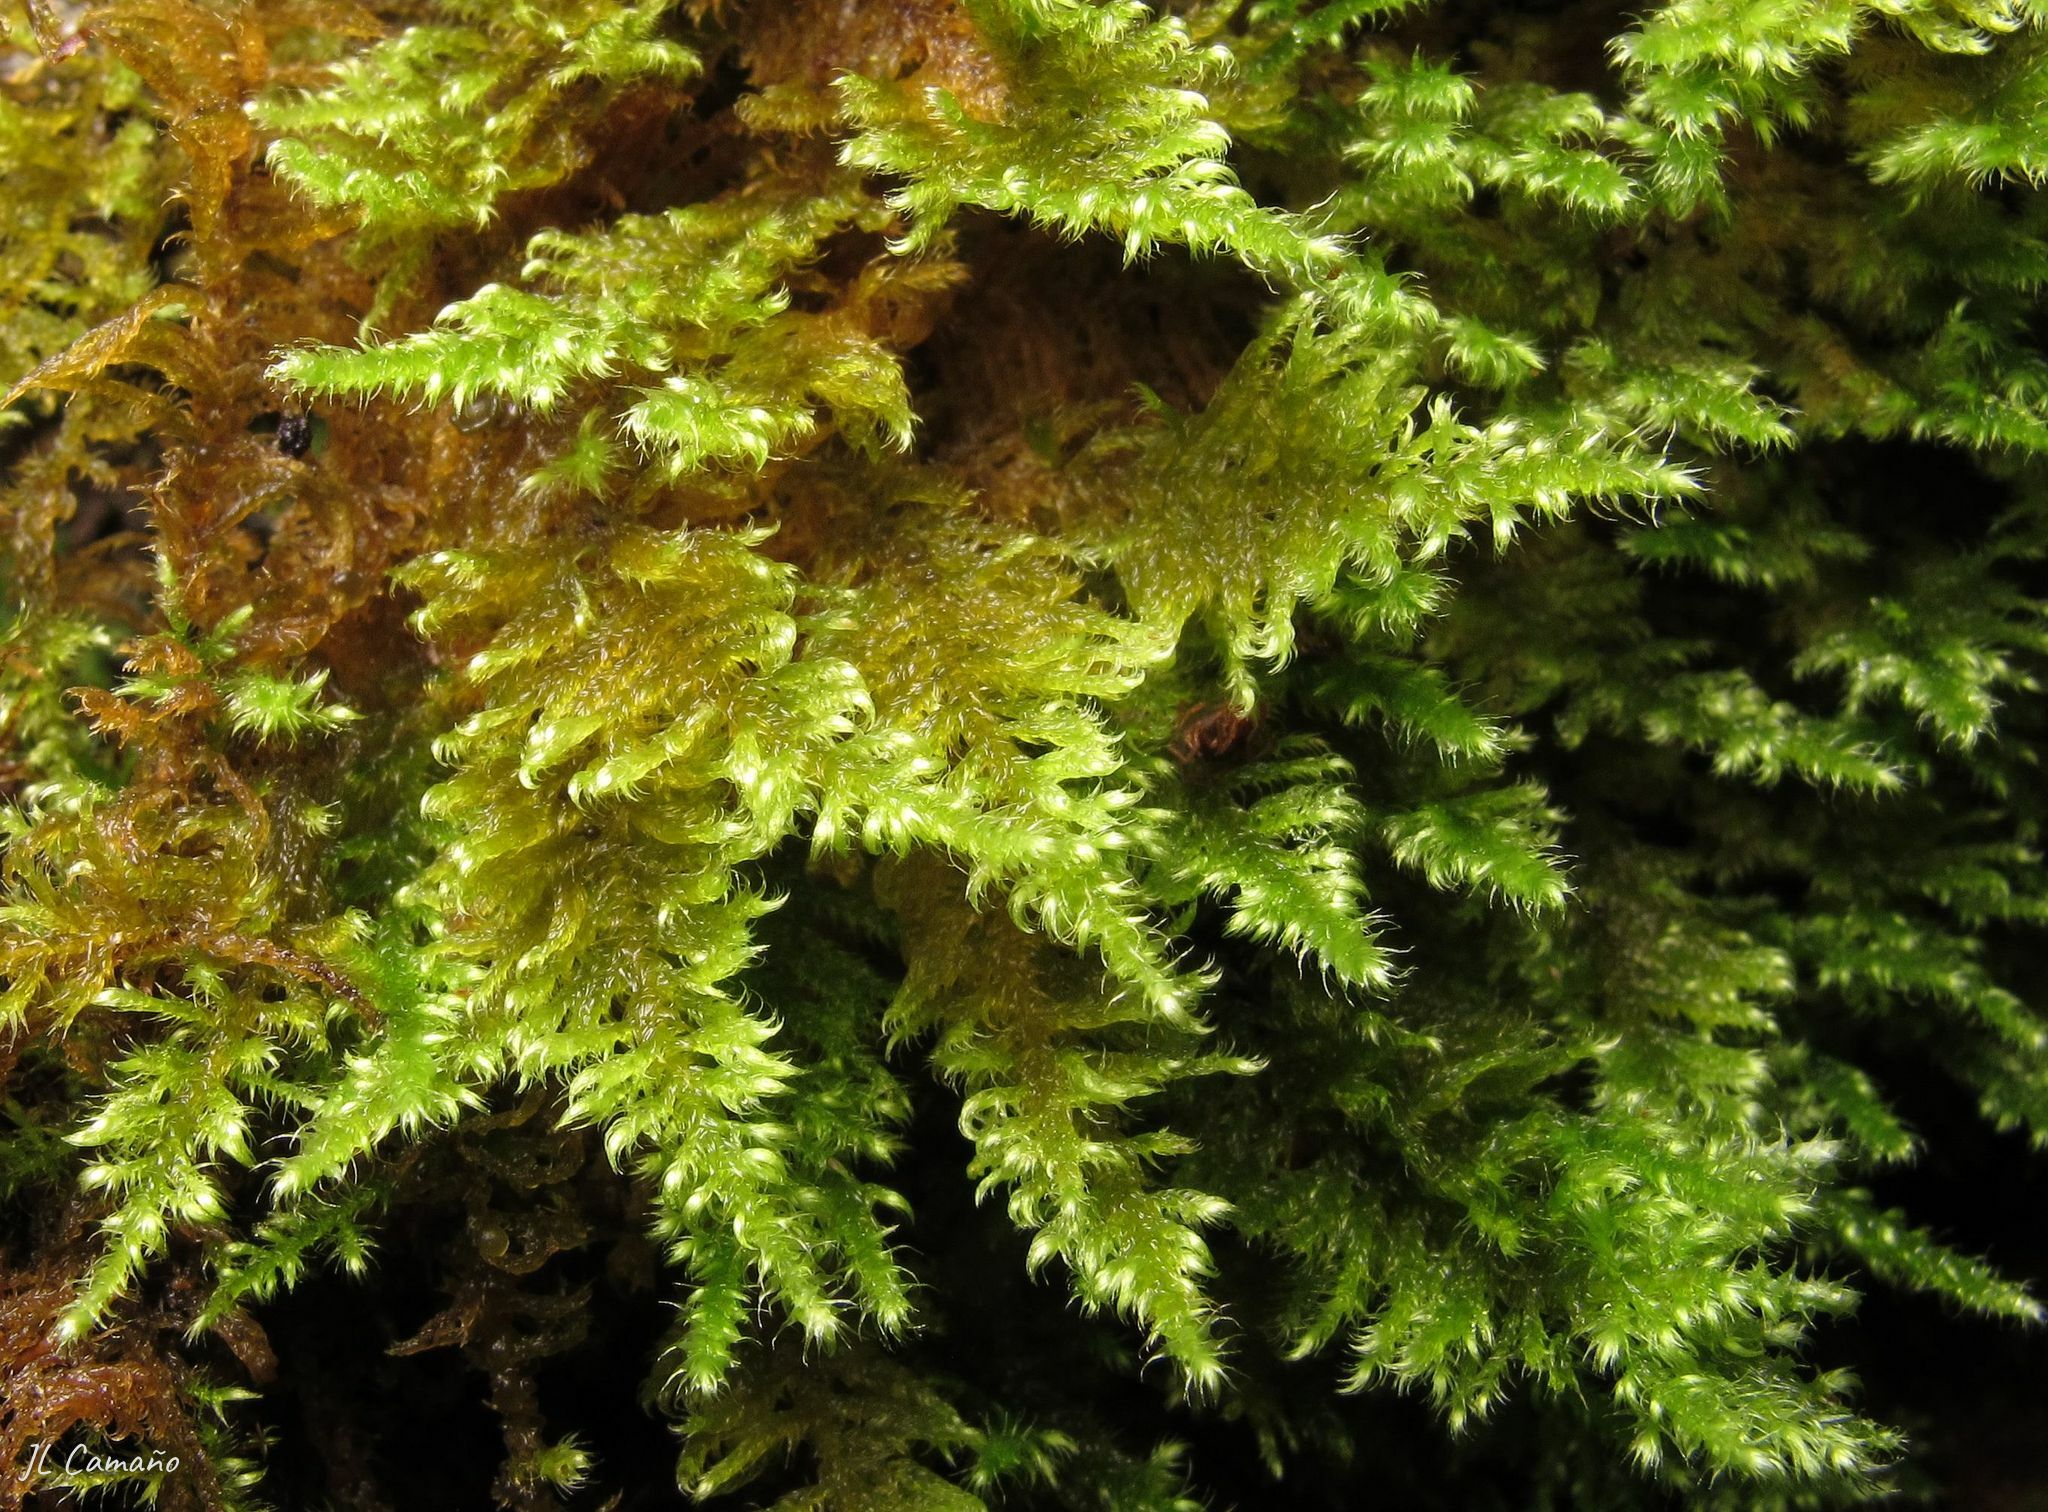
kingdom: Plantae
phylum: Bryophyta
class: Bryopsida
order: Hypnales
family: Myuriaceae
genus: Ctenidium
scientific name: Ctenidium molluscum
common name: Chalk comb-moss
